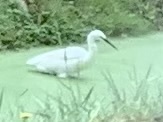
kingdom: Animalia
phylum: Chordata
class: Aves
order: Pelecaniformes
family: Ardeidae
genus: Egretta
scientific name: Egretta garzetta
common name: Little egret
